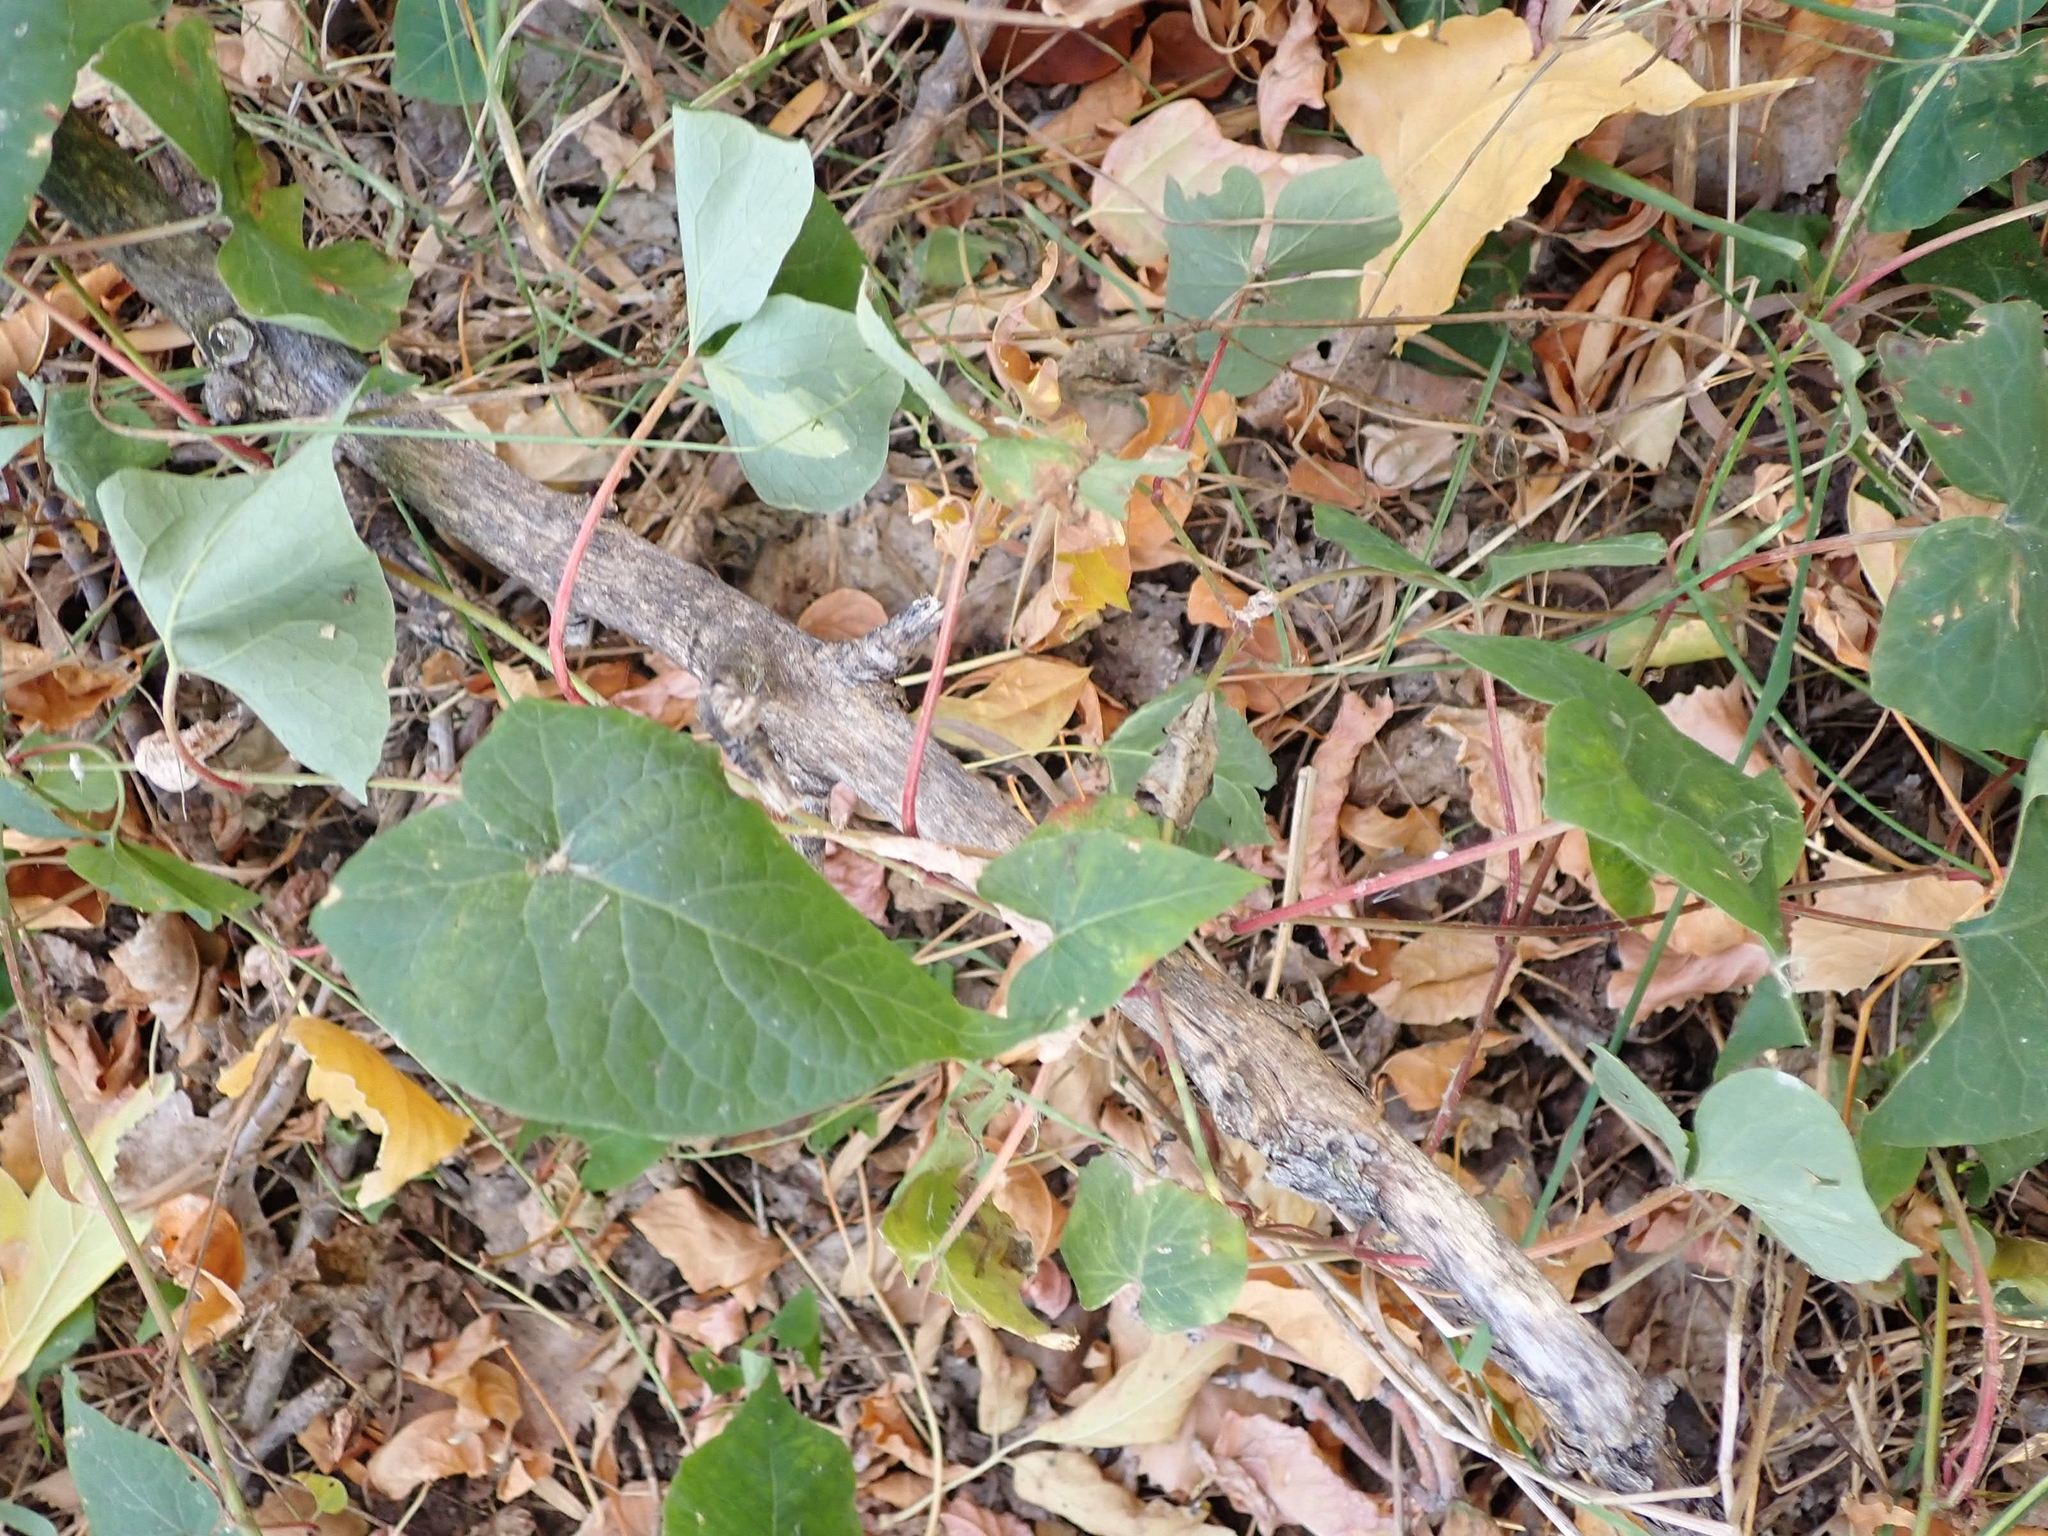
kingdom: Plantae
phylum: Tracheophyta
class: Magnoliopsida
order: Solanales
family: Convolvulaceae
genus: Calystegia
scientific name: Calystegia sepium
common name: Hedge bindweed
